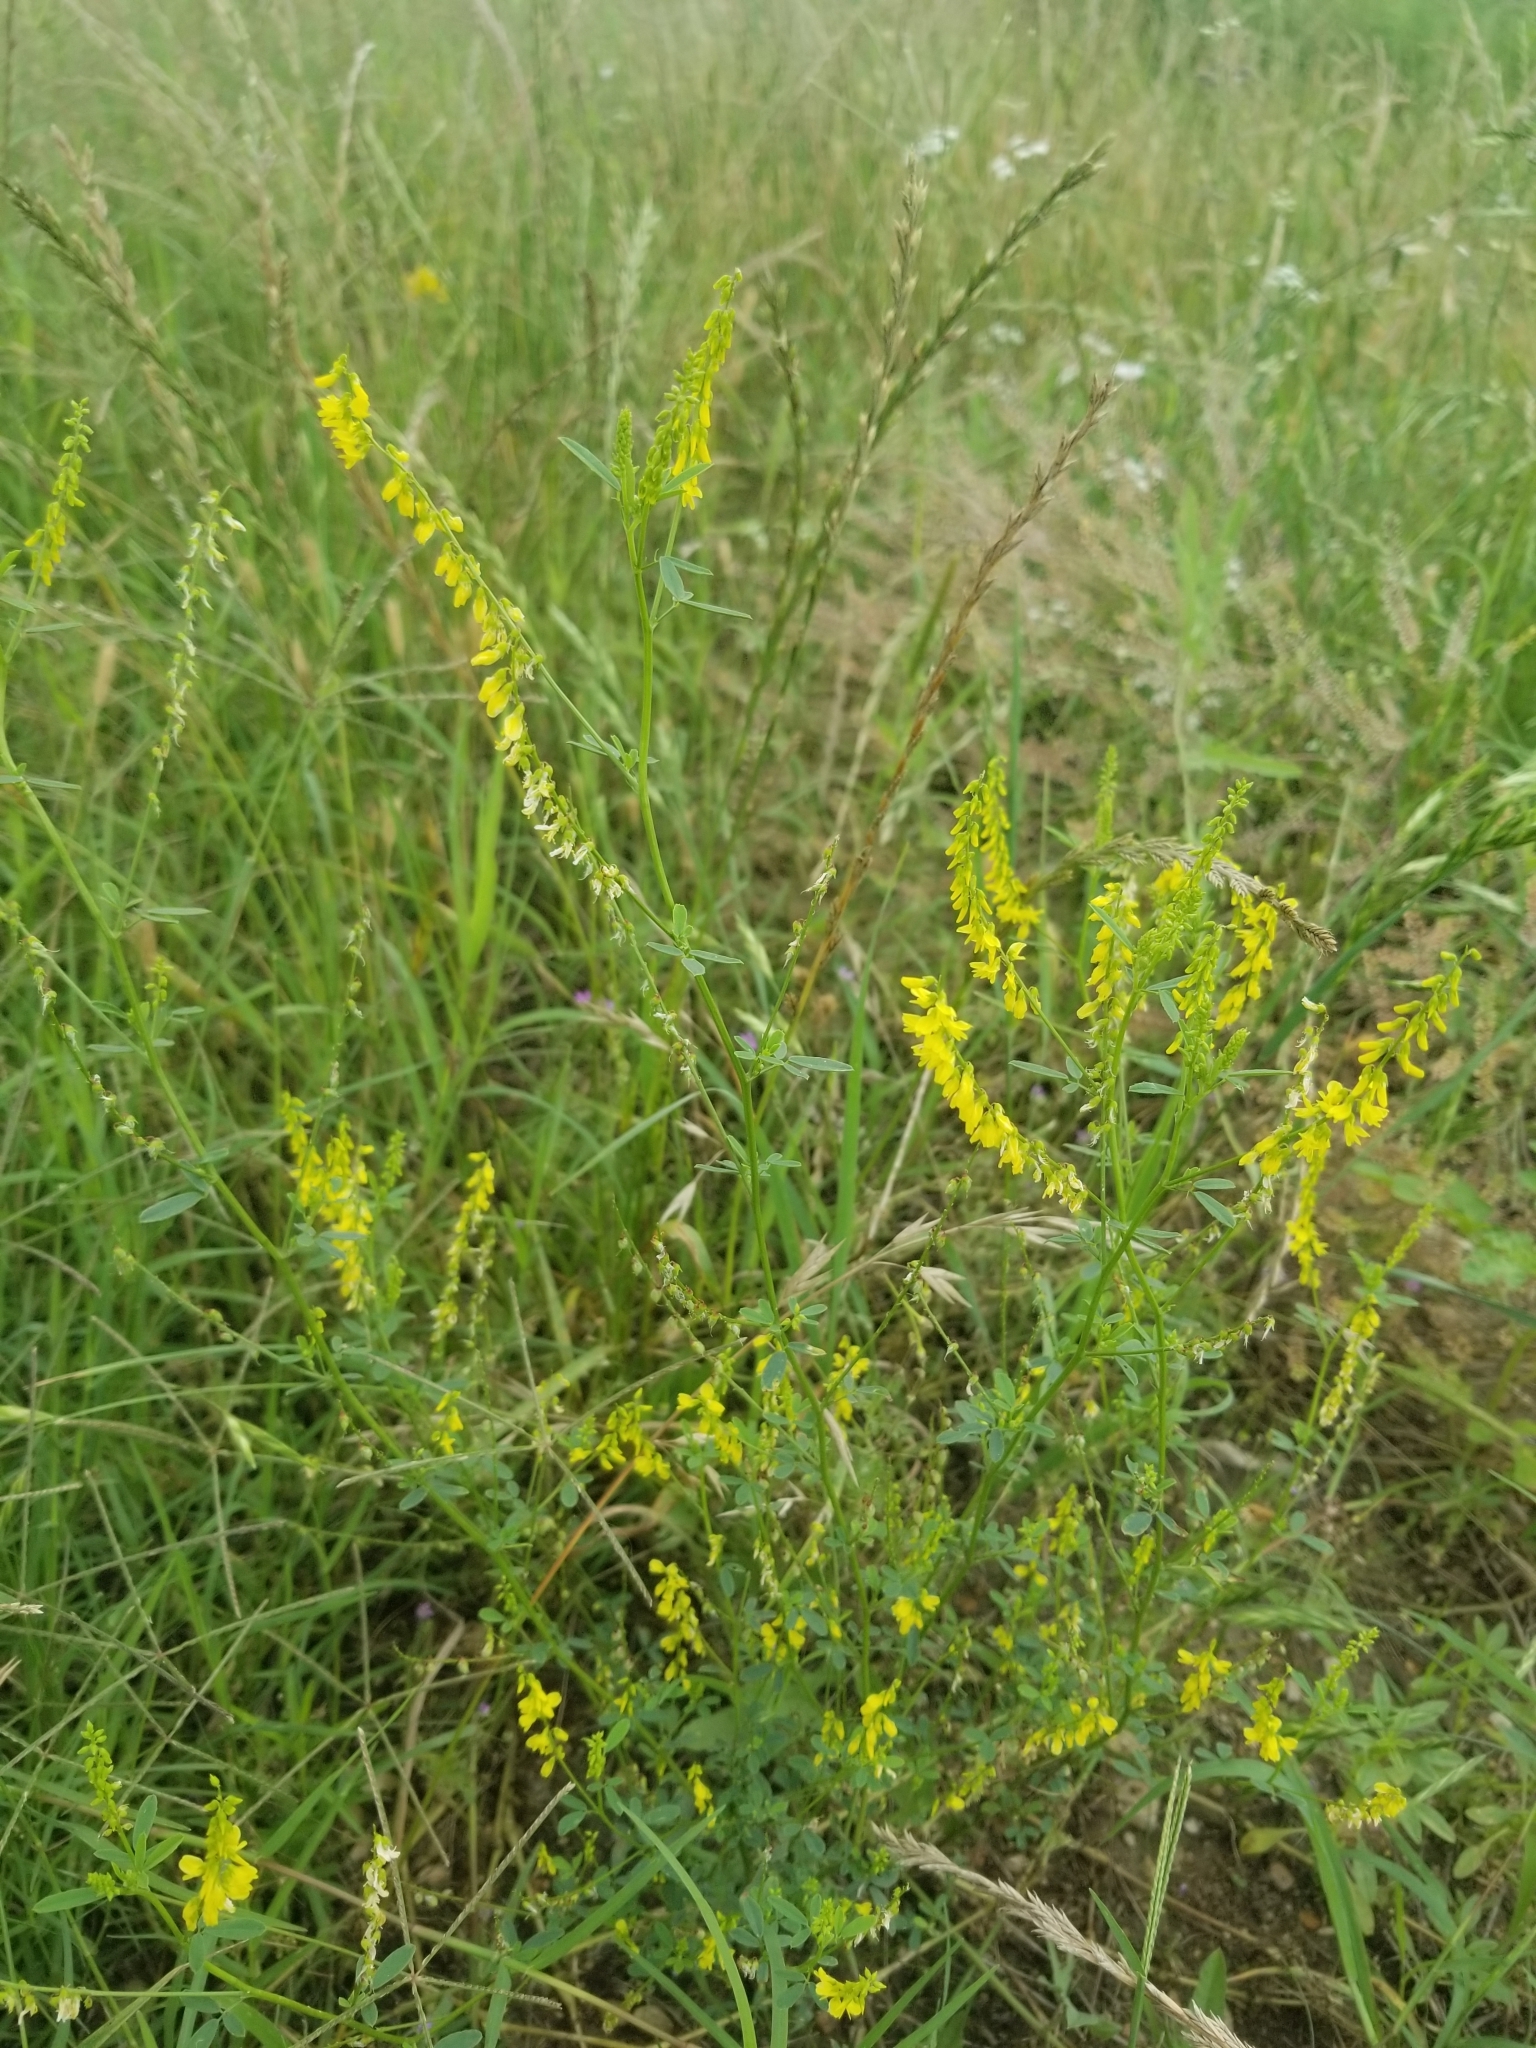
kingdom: Plantae
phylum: Tracheophyta
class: Magnoliopsida
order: Fabales
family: Fabaceae
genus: Melilotus
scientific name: Melilotus officinalis
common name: Sweetclover
